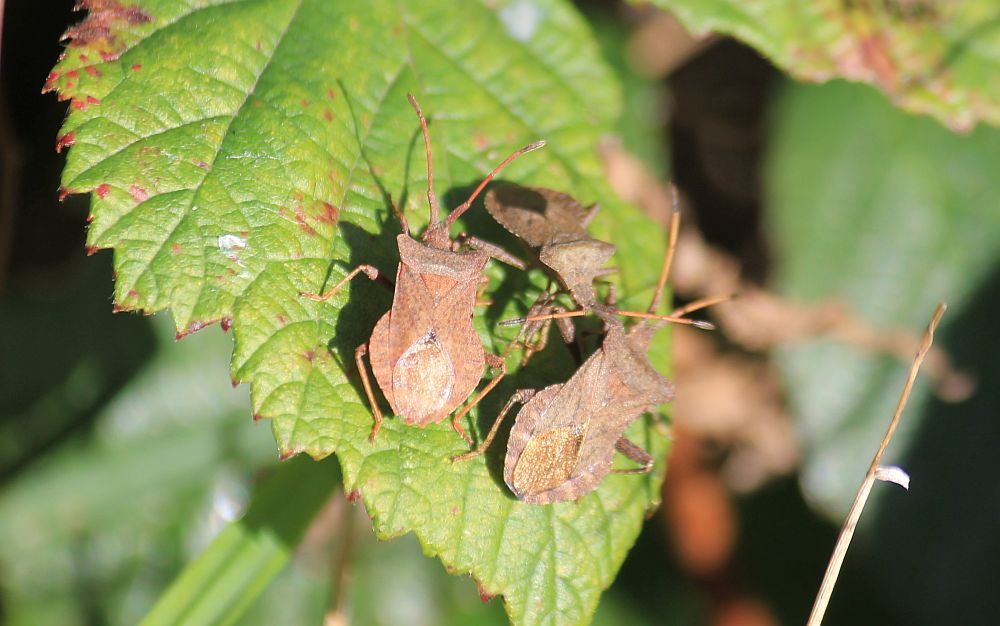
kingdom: Animalia
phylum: Arthropoda
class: Insecta
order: Hemiptera
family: Coreidae
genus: Coreus
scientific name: Coreus marginatus
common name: Dock bug
